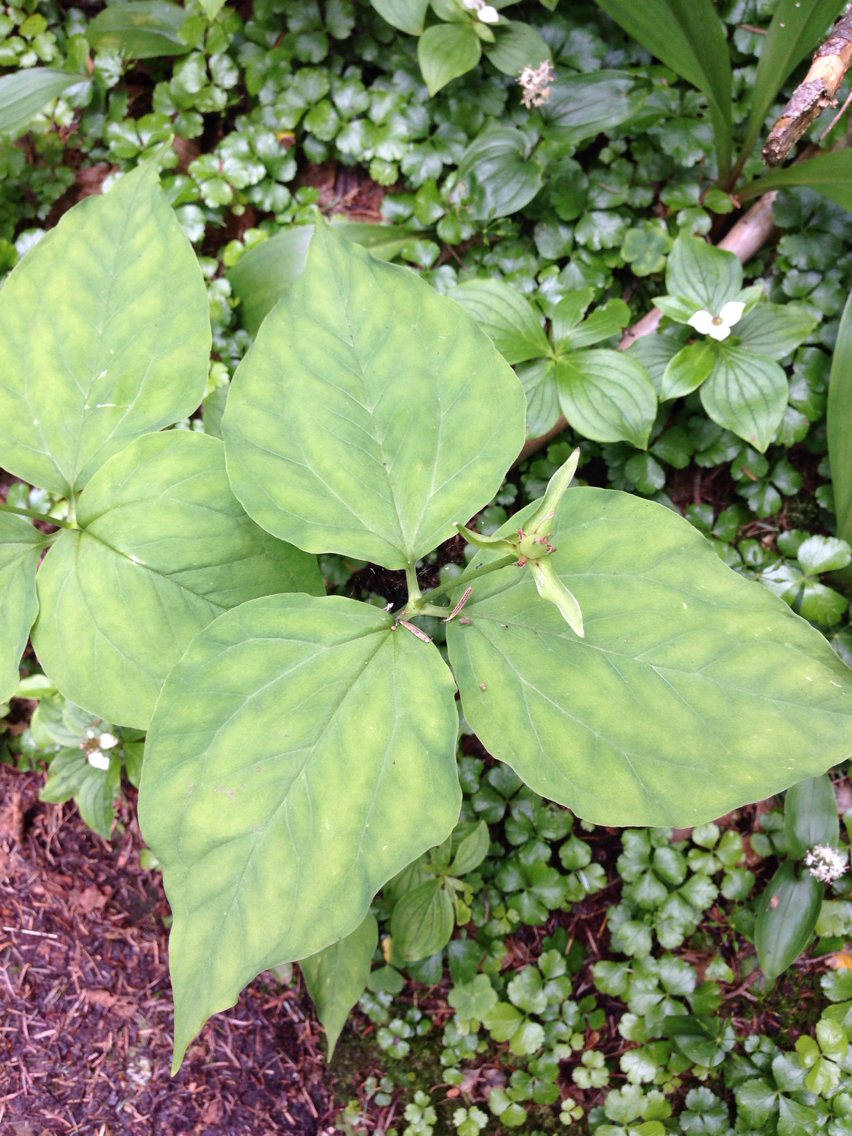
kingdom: Plantae
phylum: Tracheophyta
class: Liliopsida
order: Liliales
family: Melanthiaceae
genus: Trillium
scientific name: Trillium undulatum
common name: Paint trillium
